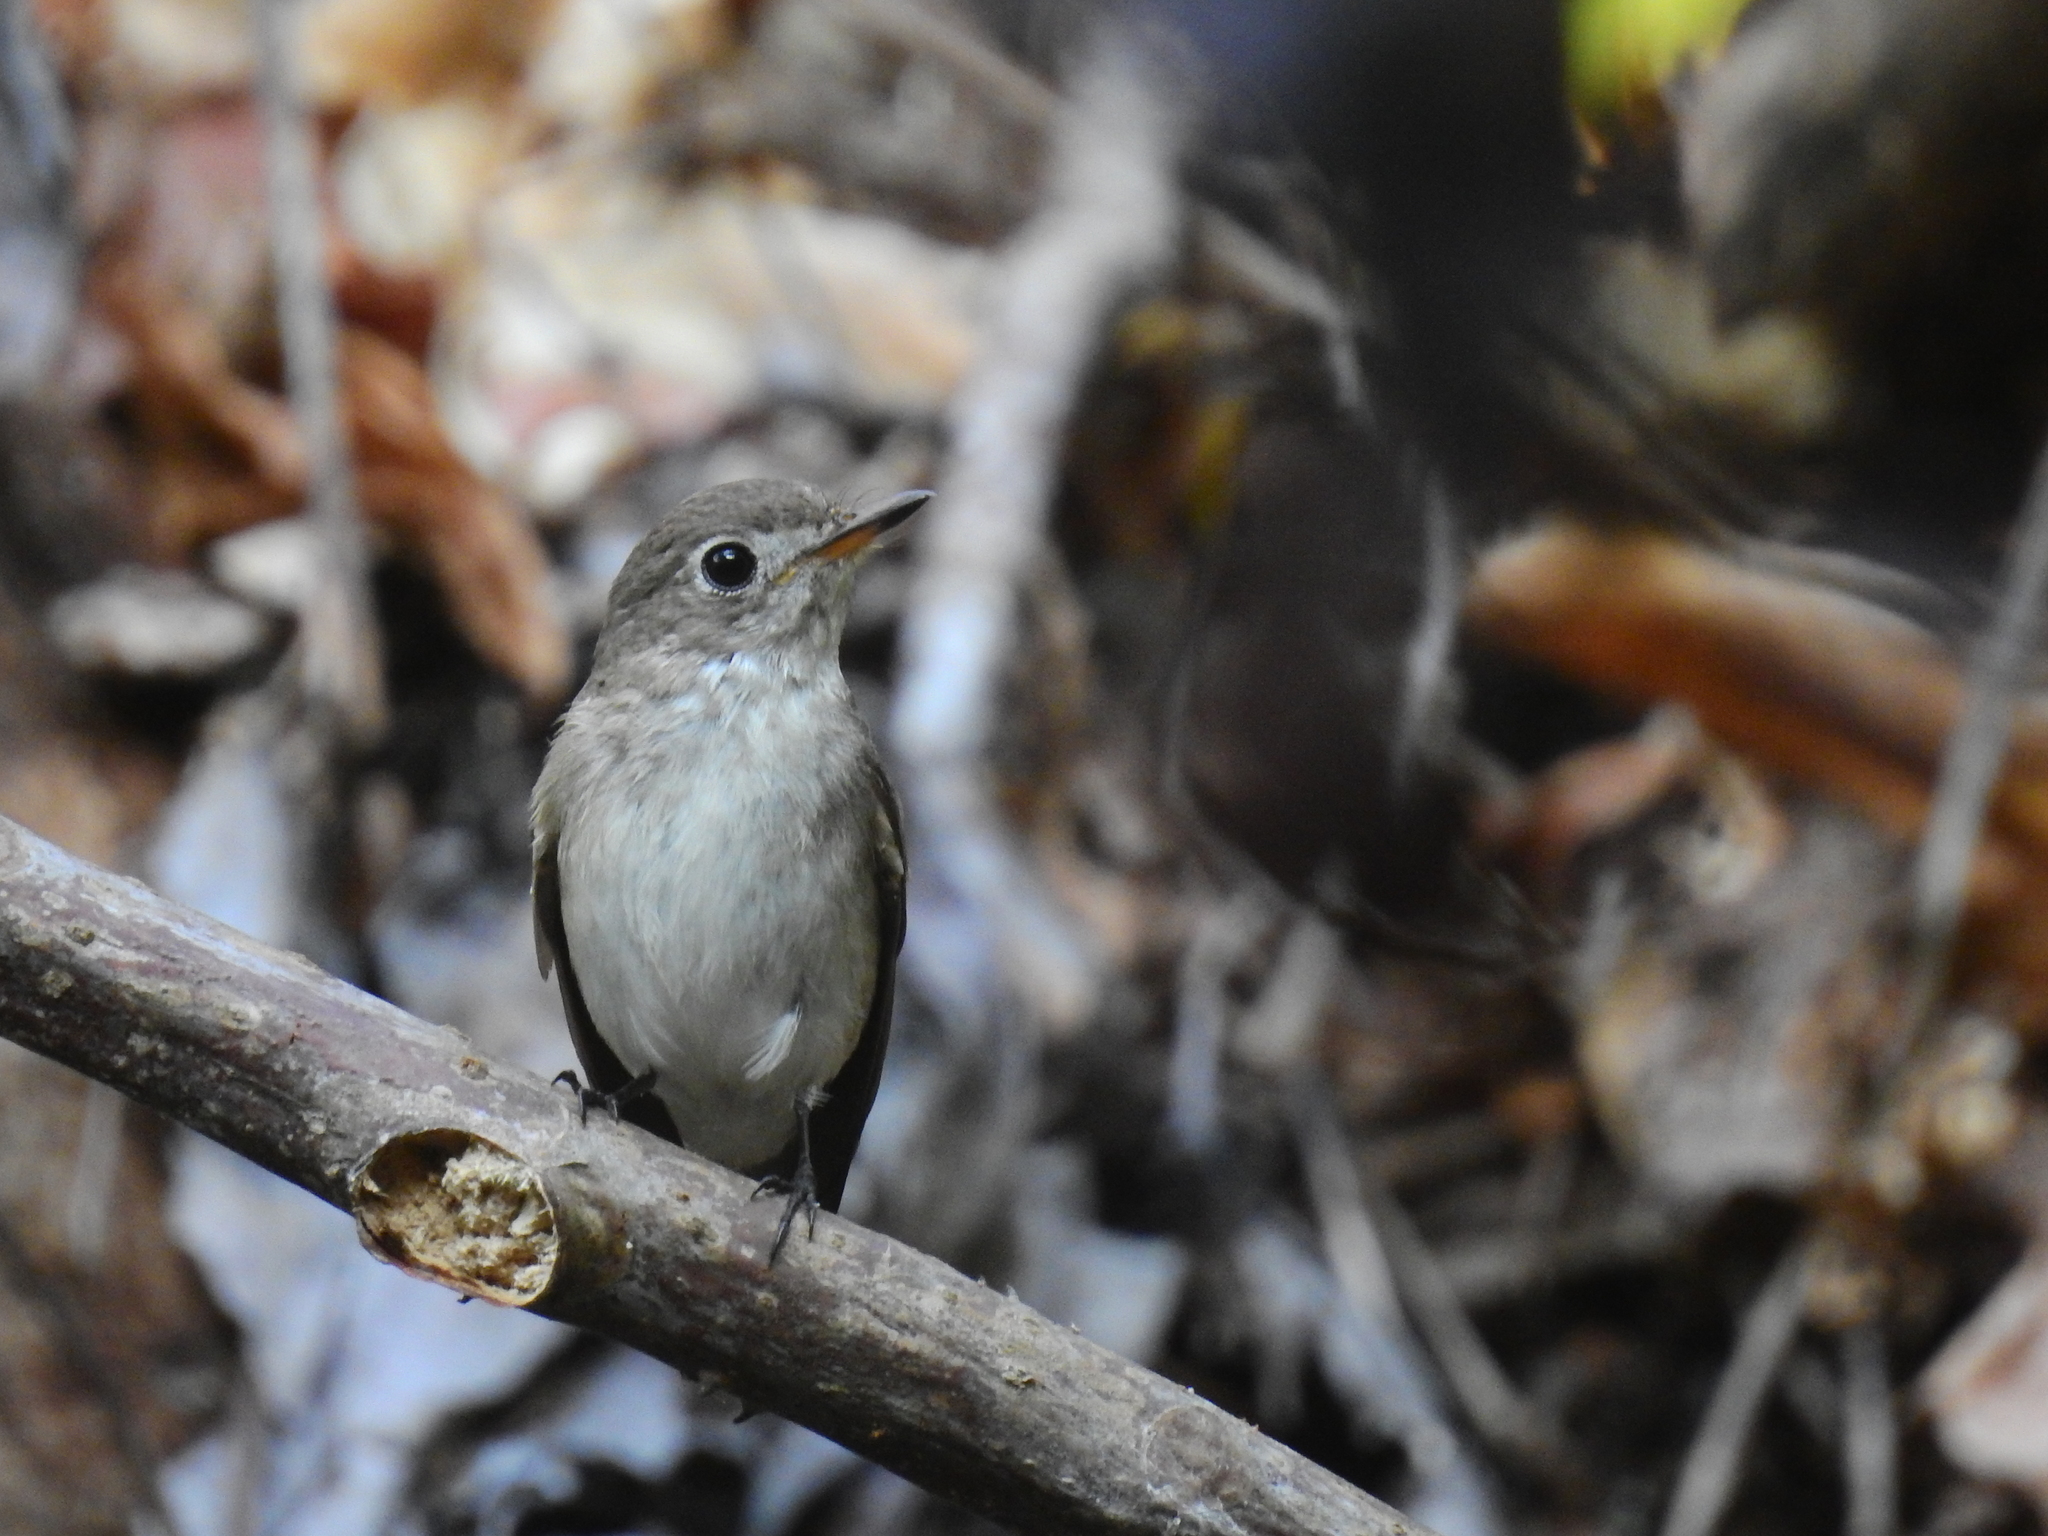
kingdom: Animalia
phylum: Chordata
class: Aves
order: Passeriformes
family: Muscicapidae
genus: Muscicapa
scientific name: Muscicapa latirostris
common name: Asian brown flycatcher
